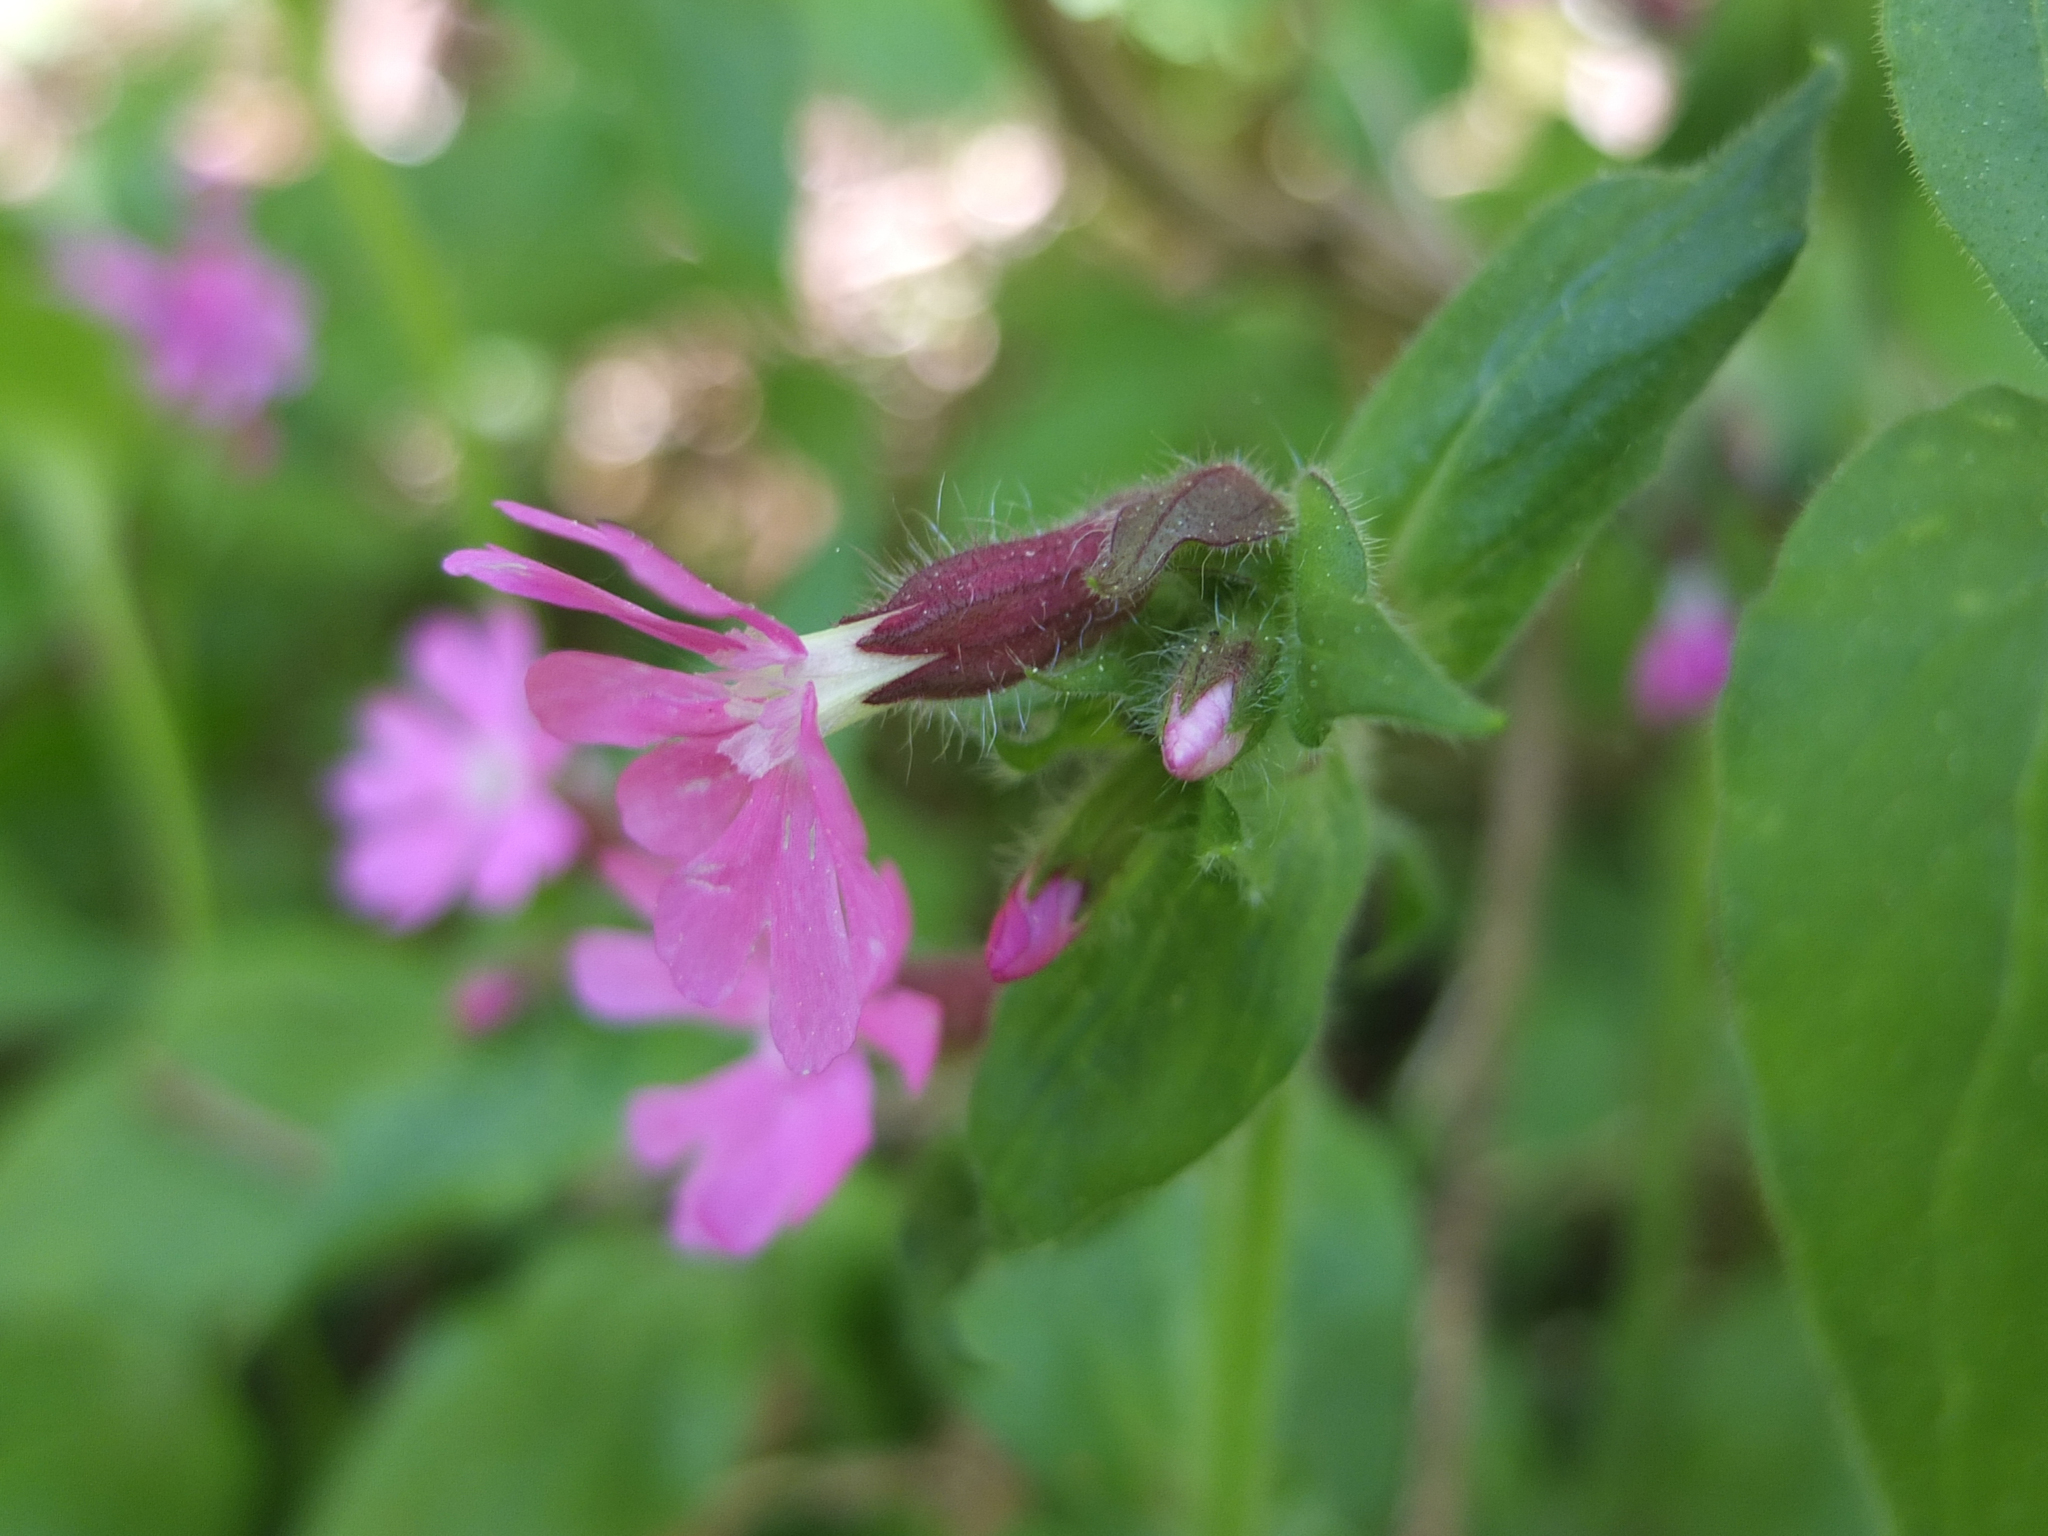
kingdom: Plantae
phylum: Tracheophyta
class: Magnoliopsida
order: Caryophyllales
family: Caryophyllaceae
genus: Silene
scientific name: Silene dioica
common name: Red campion
